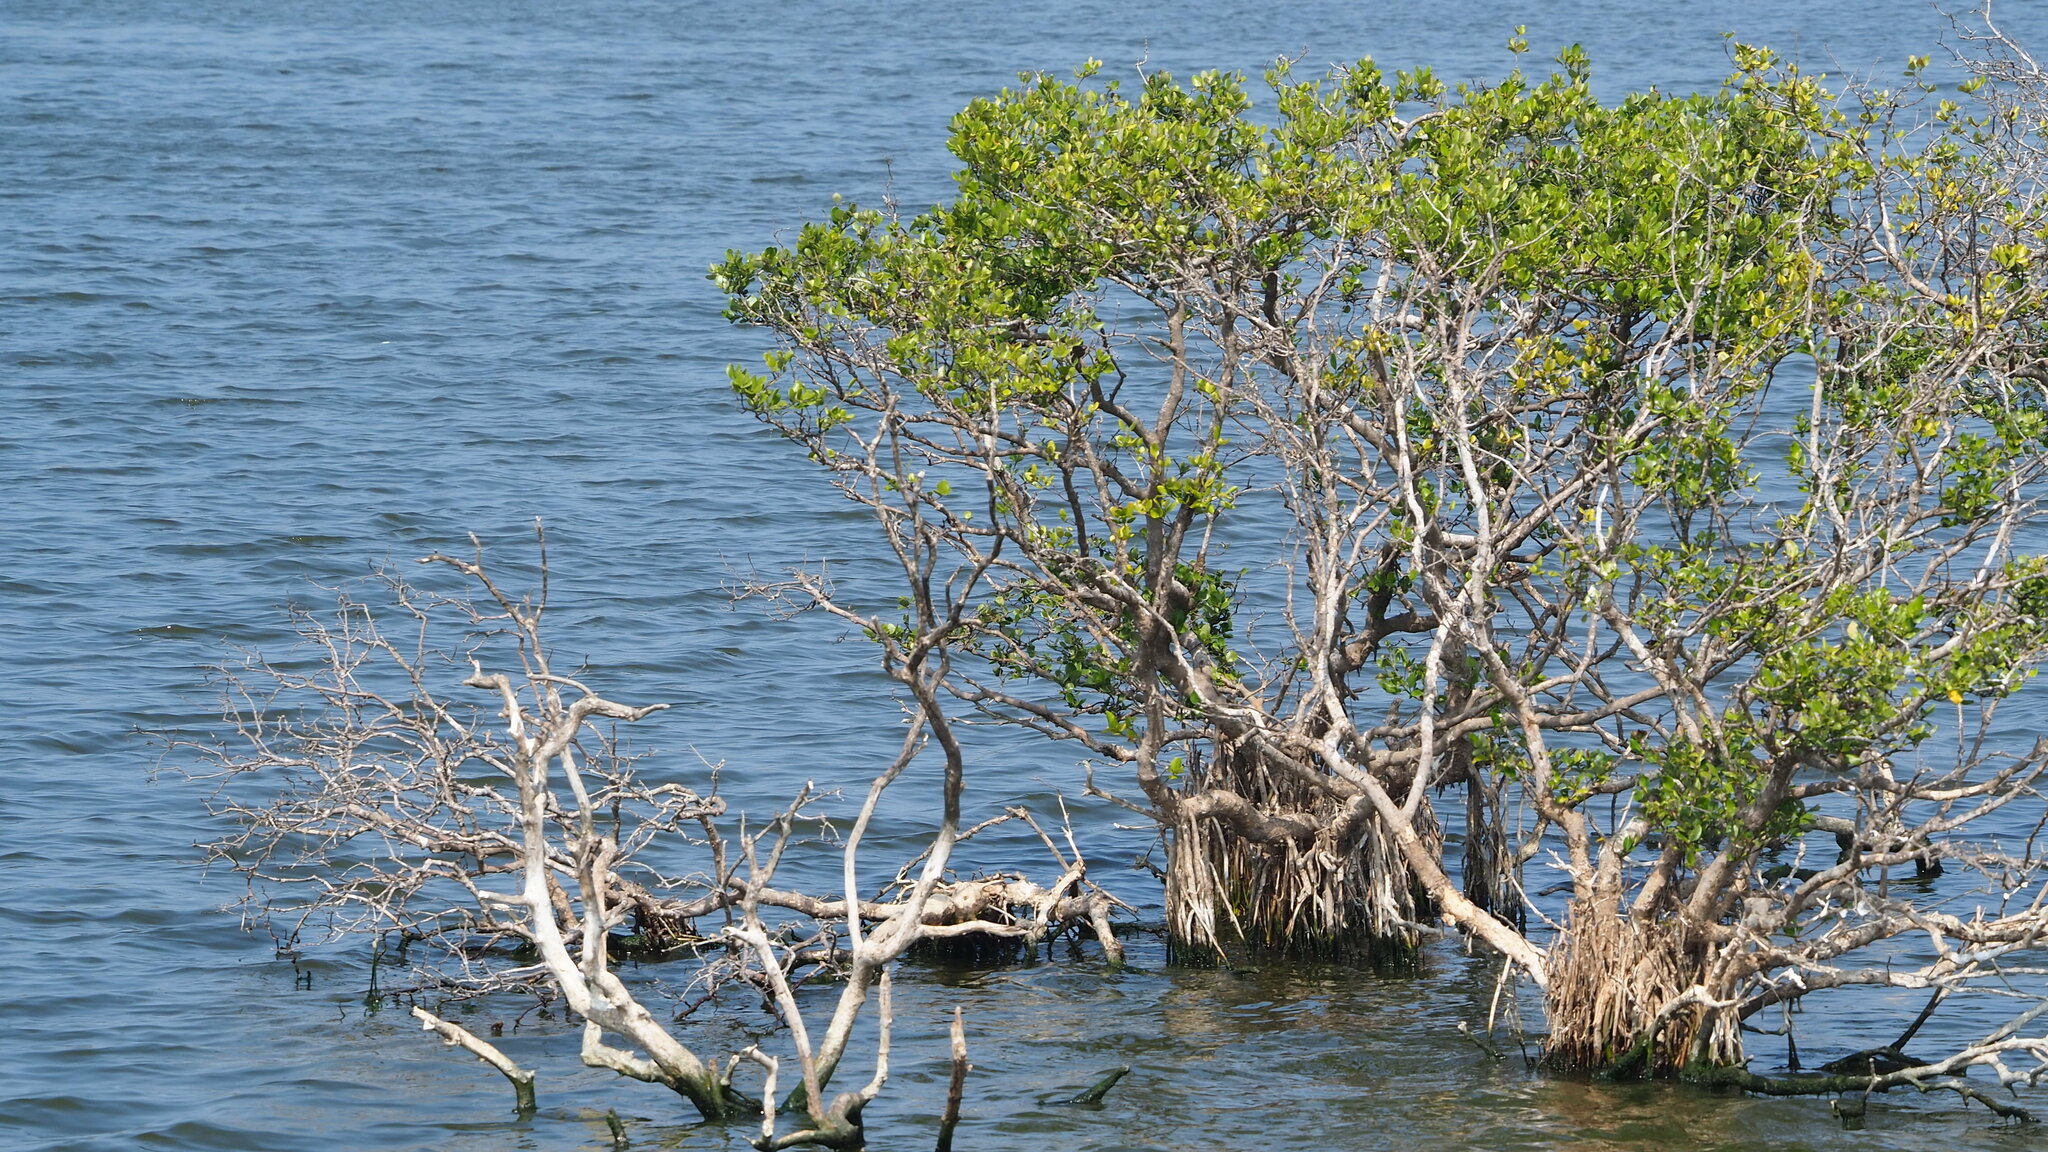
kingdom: Plantae
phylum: Tracheophyta
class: Magnoliopsida
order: Lamiales
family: Acanthaceae
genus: Avicennia
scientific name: Avicennia marina
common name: Gray mangrove
